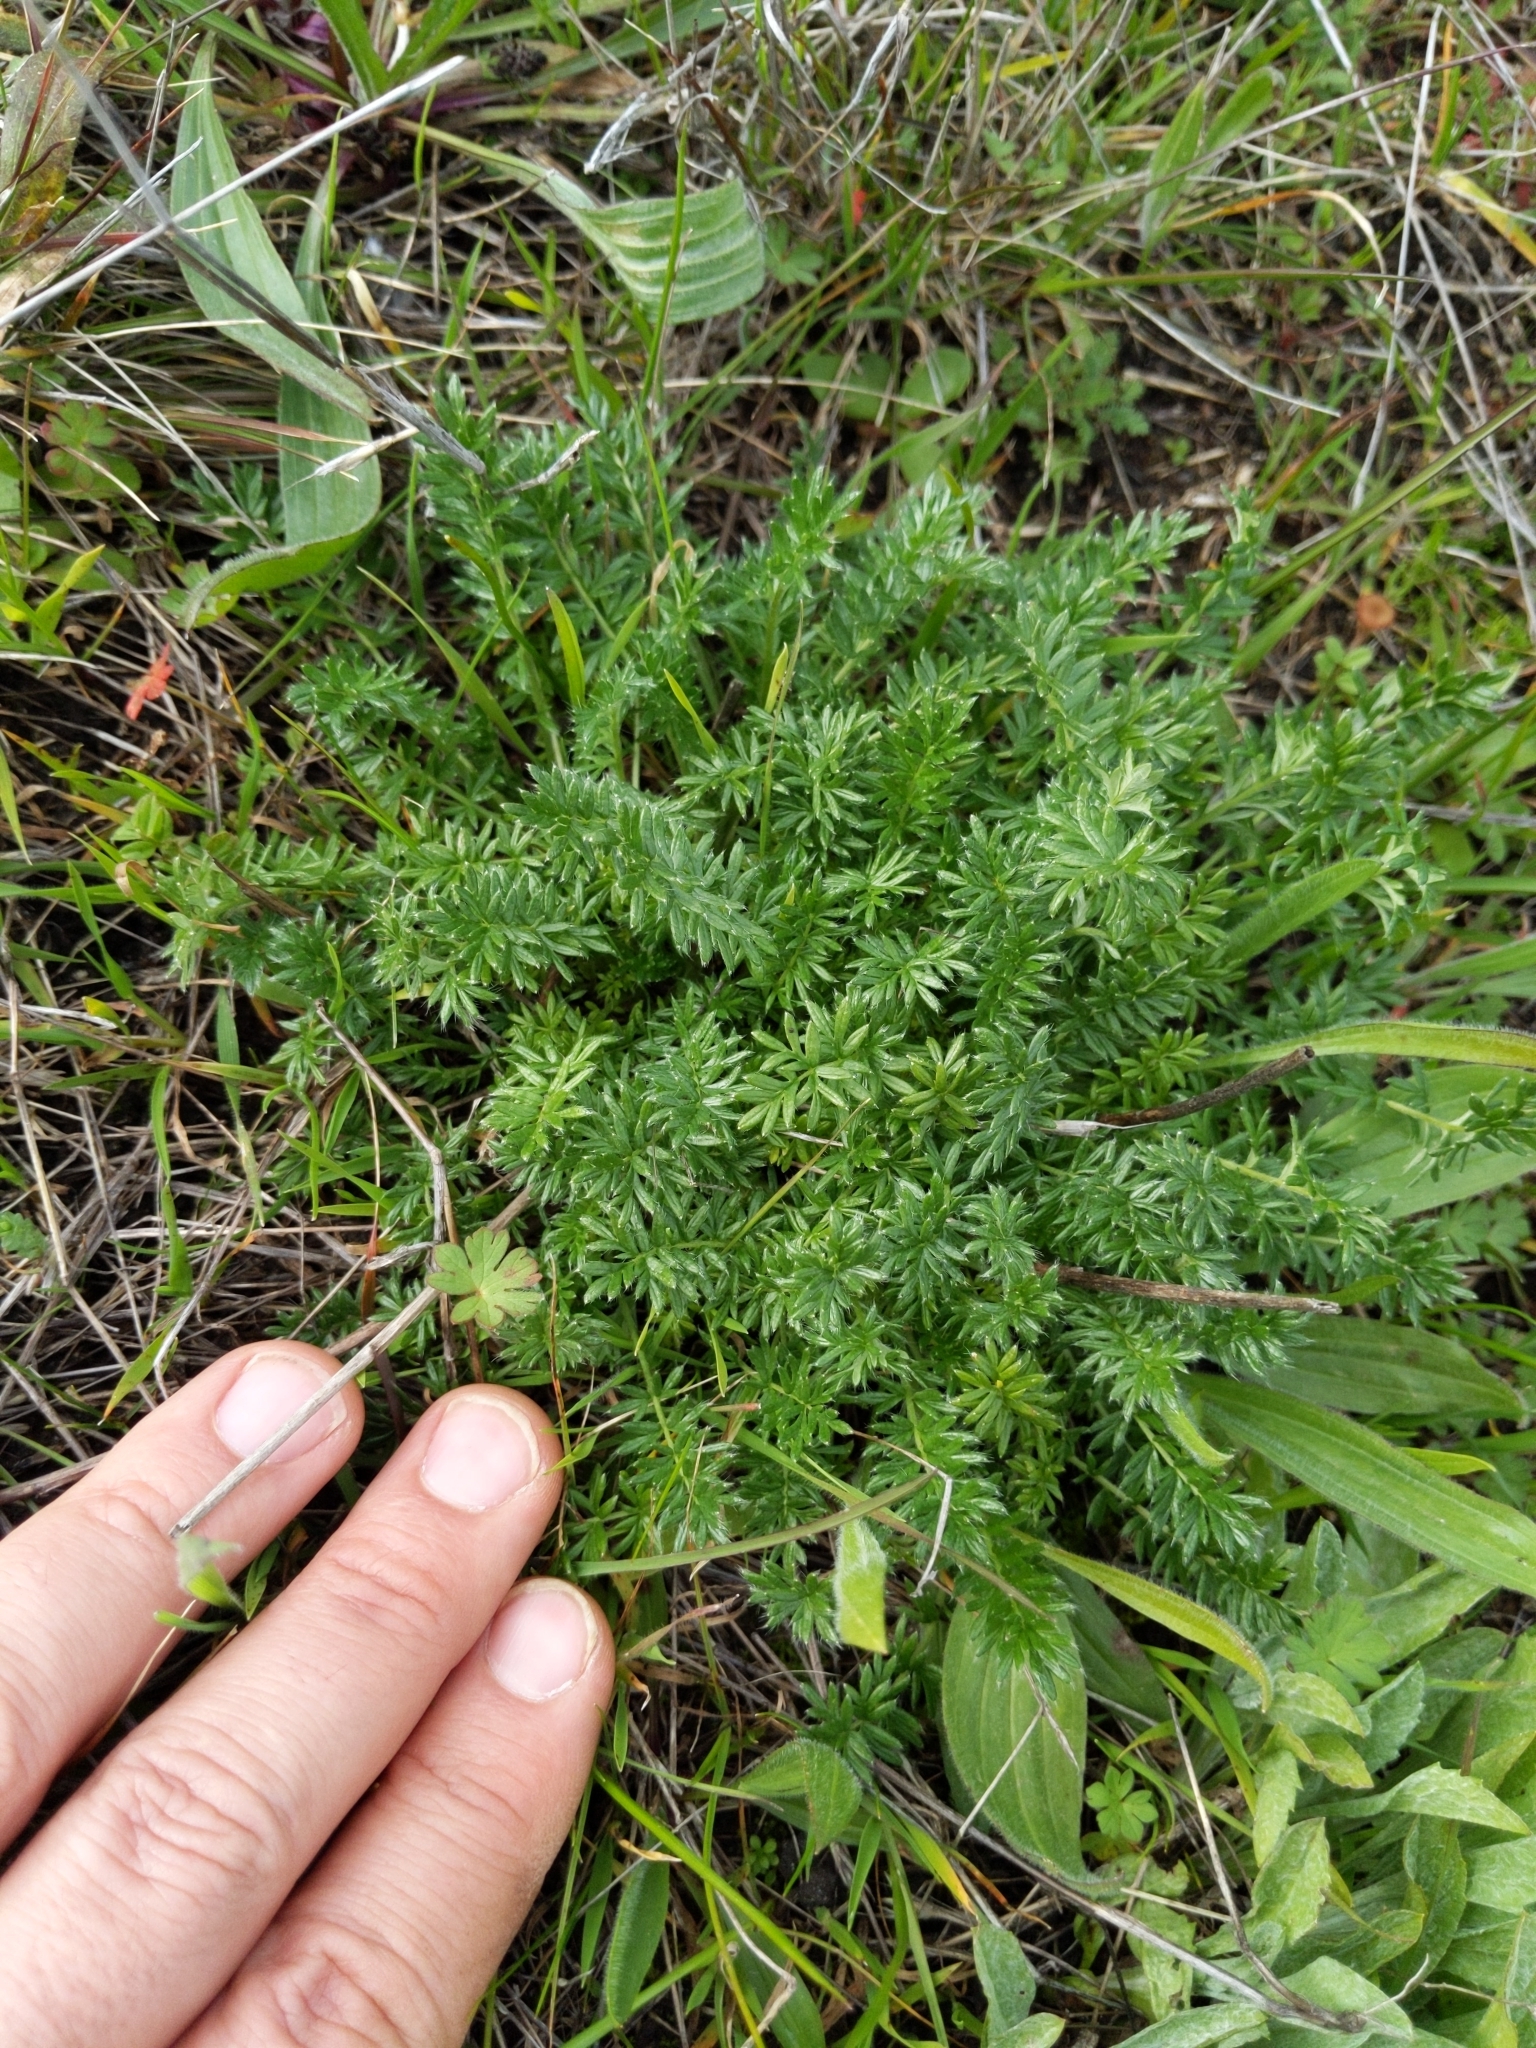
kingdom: Plantae
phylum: Tracheophyta
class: Magnoliopsida
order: Rosales
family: Rosaceae
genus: Acaena
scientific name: Acaena pinnatifida
